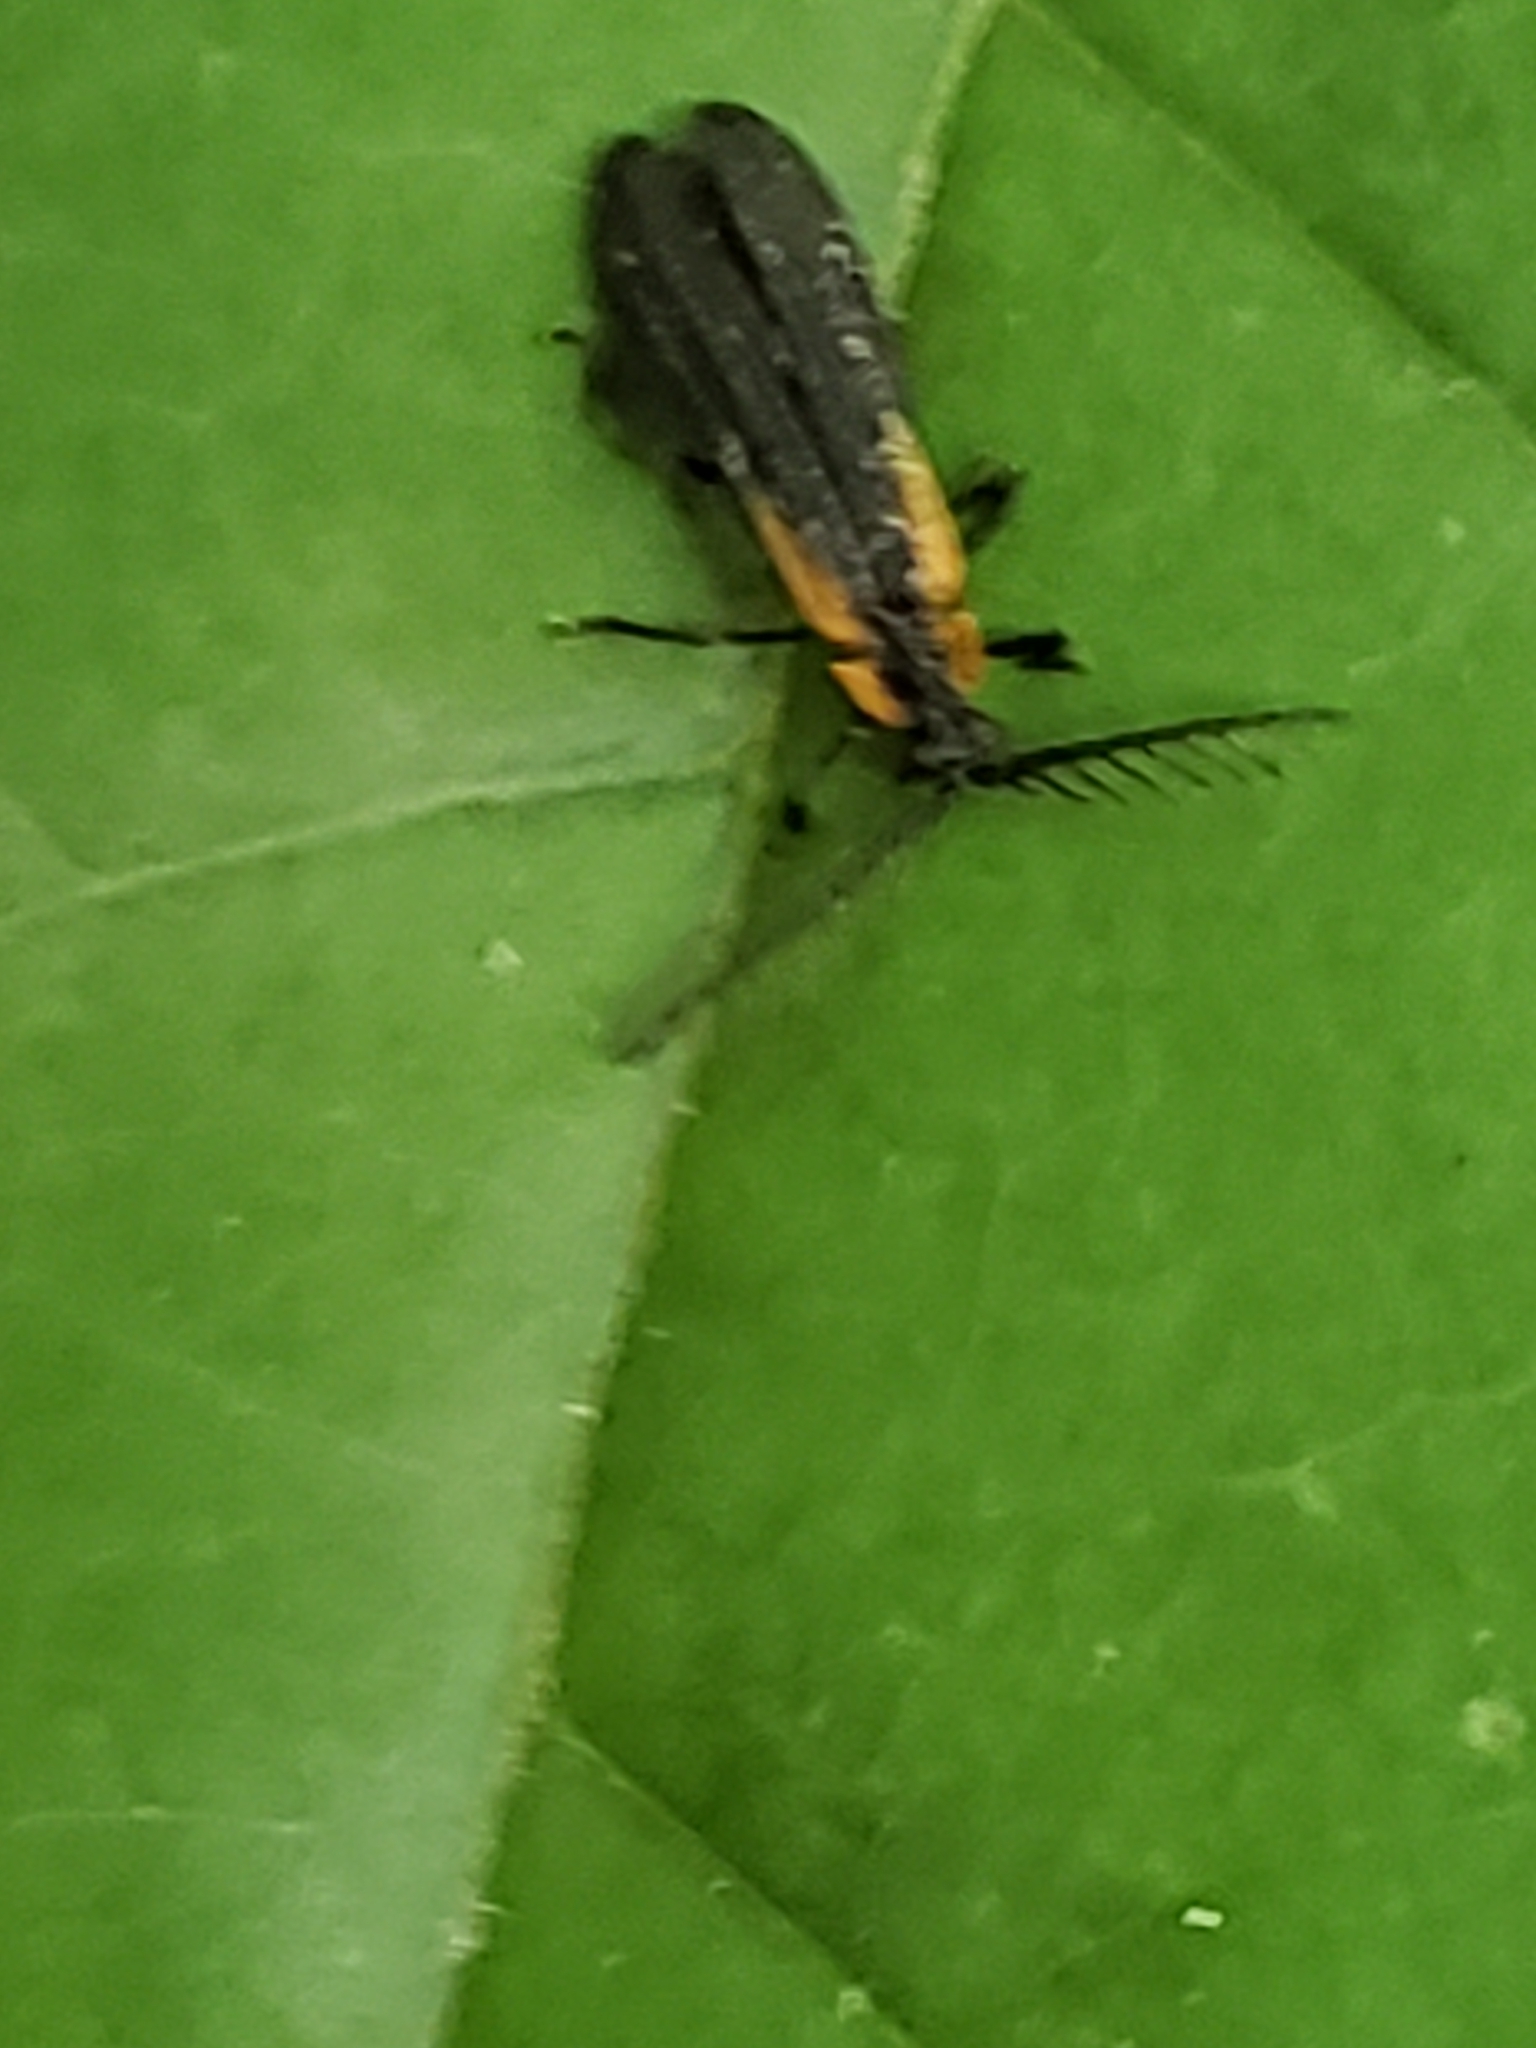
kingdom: Animalia
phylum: Arthropoda
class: Insecta
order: Coleoptera
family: Lycidae
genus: Leptoceletes
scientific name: Leptoceletes basalis
